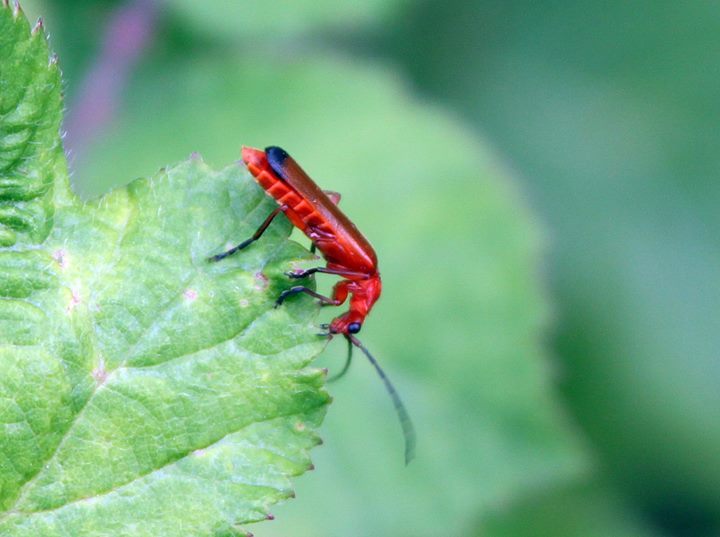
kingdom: Animalia
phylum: Arthropoda
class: Insecta
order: Coleoptera
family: Cantharidae
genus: Rhagonycha
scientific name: Rhagonycha fulva
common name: Common red soldier beetle
